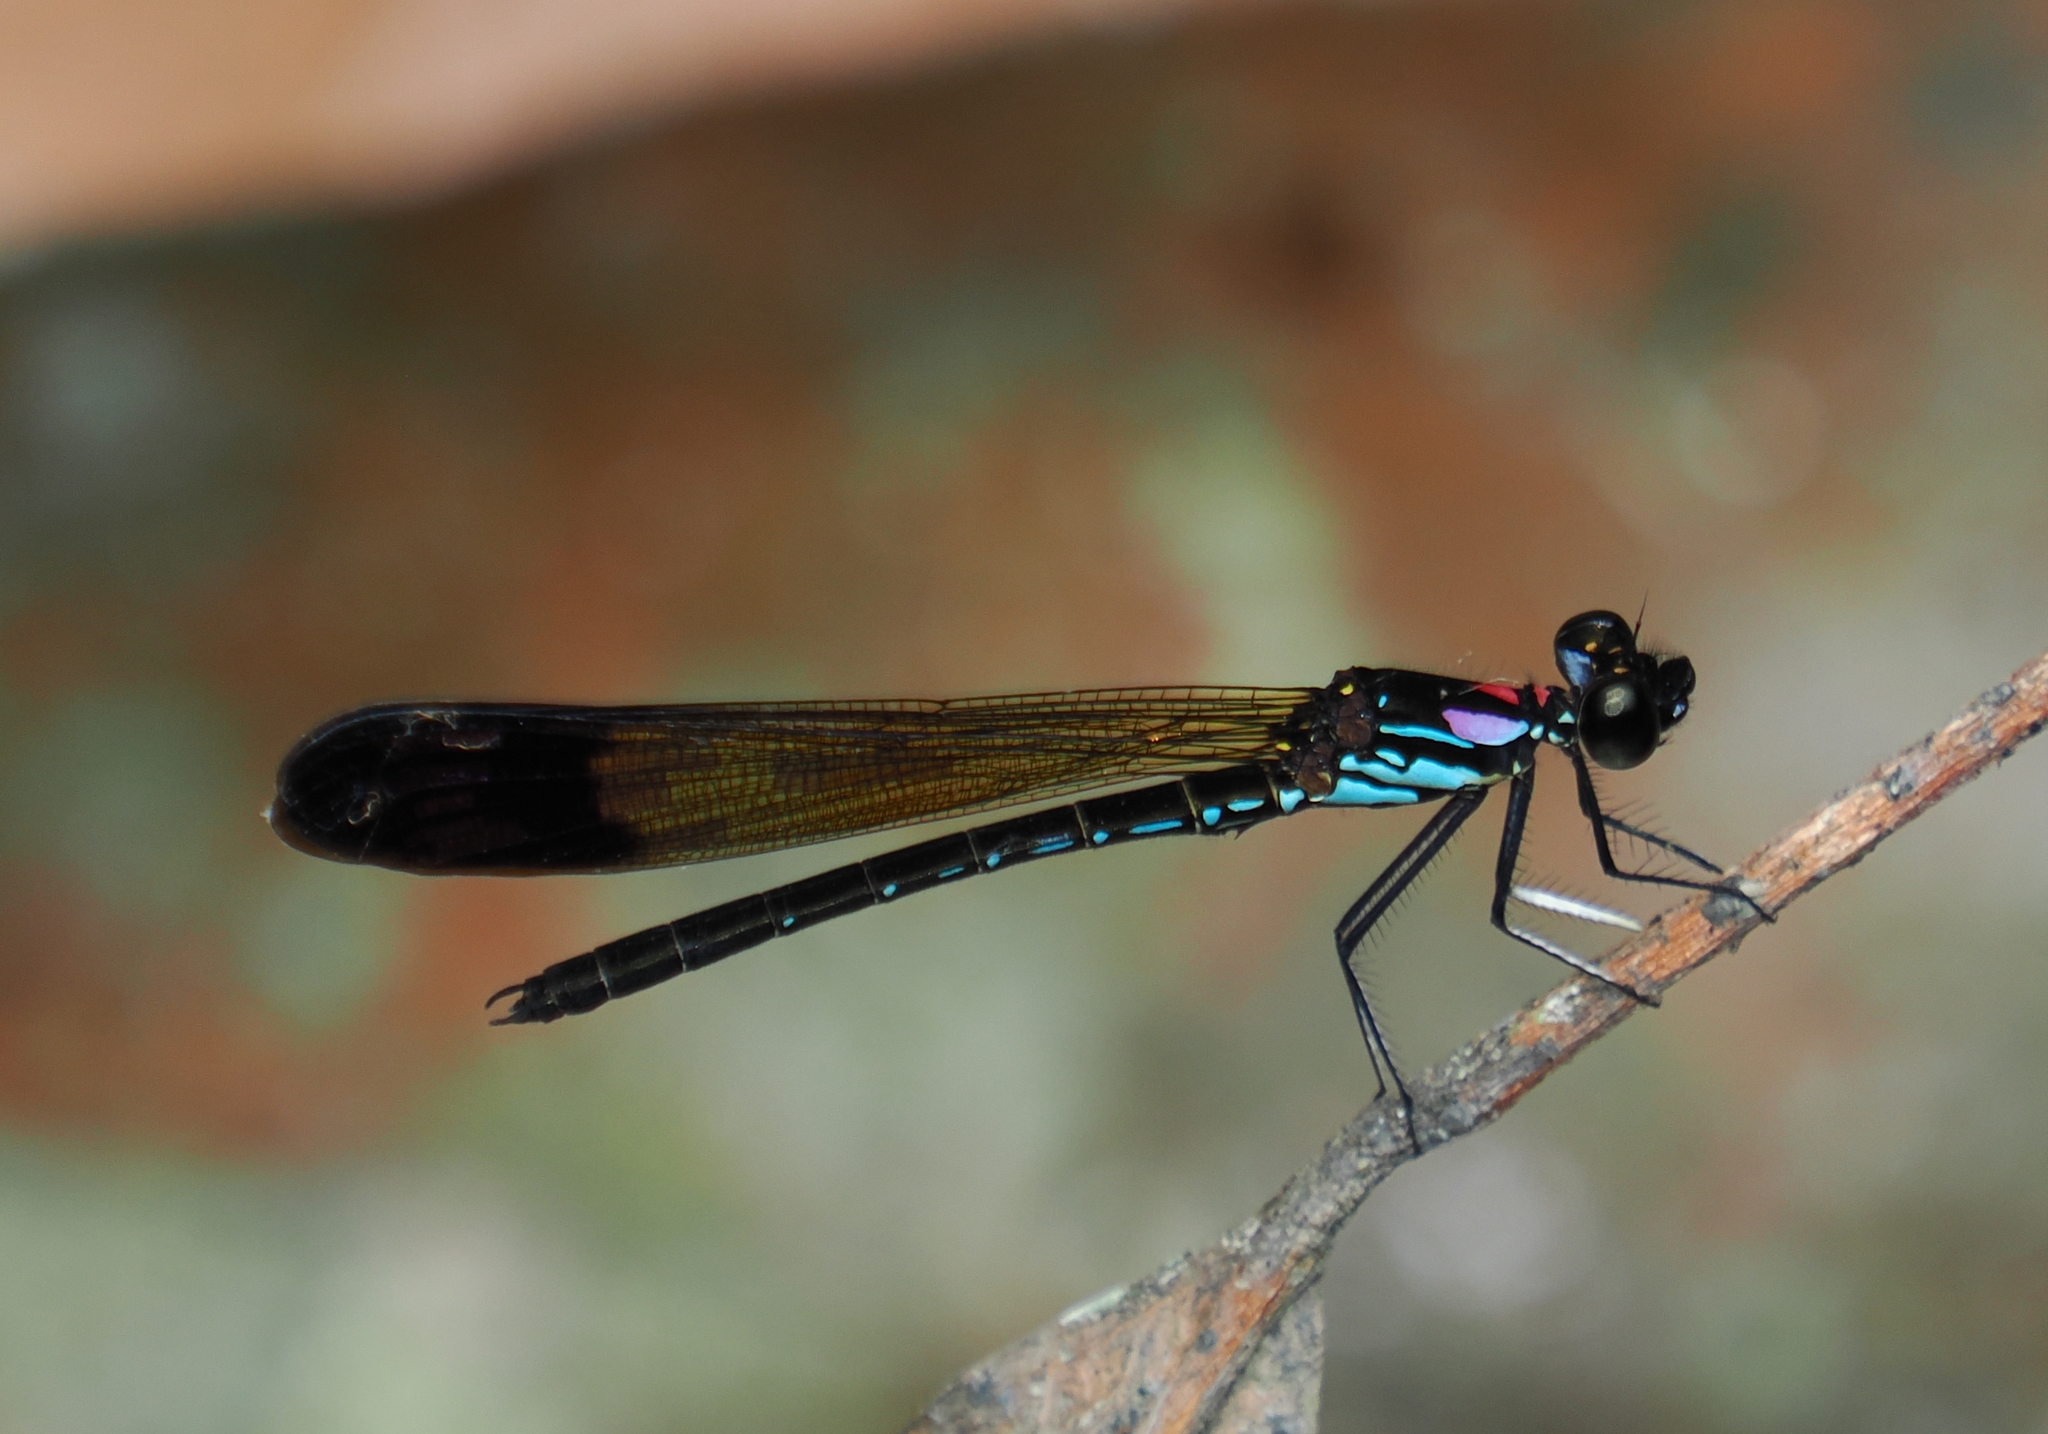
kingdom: Animalia
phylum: Arthropoda
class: Insecta
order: Odonata
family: Chlorocyphidae
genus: Heliocypha
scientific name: Heliocypha biforata
